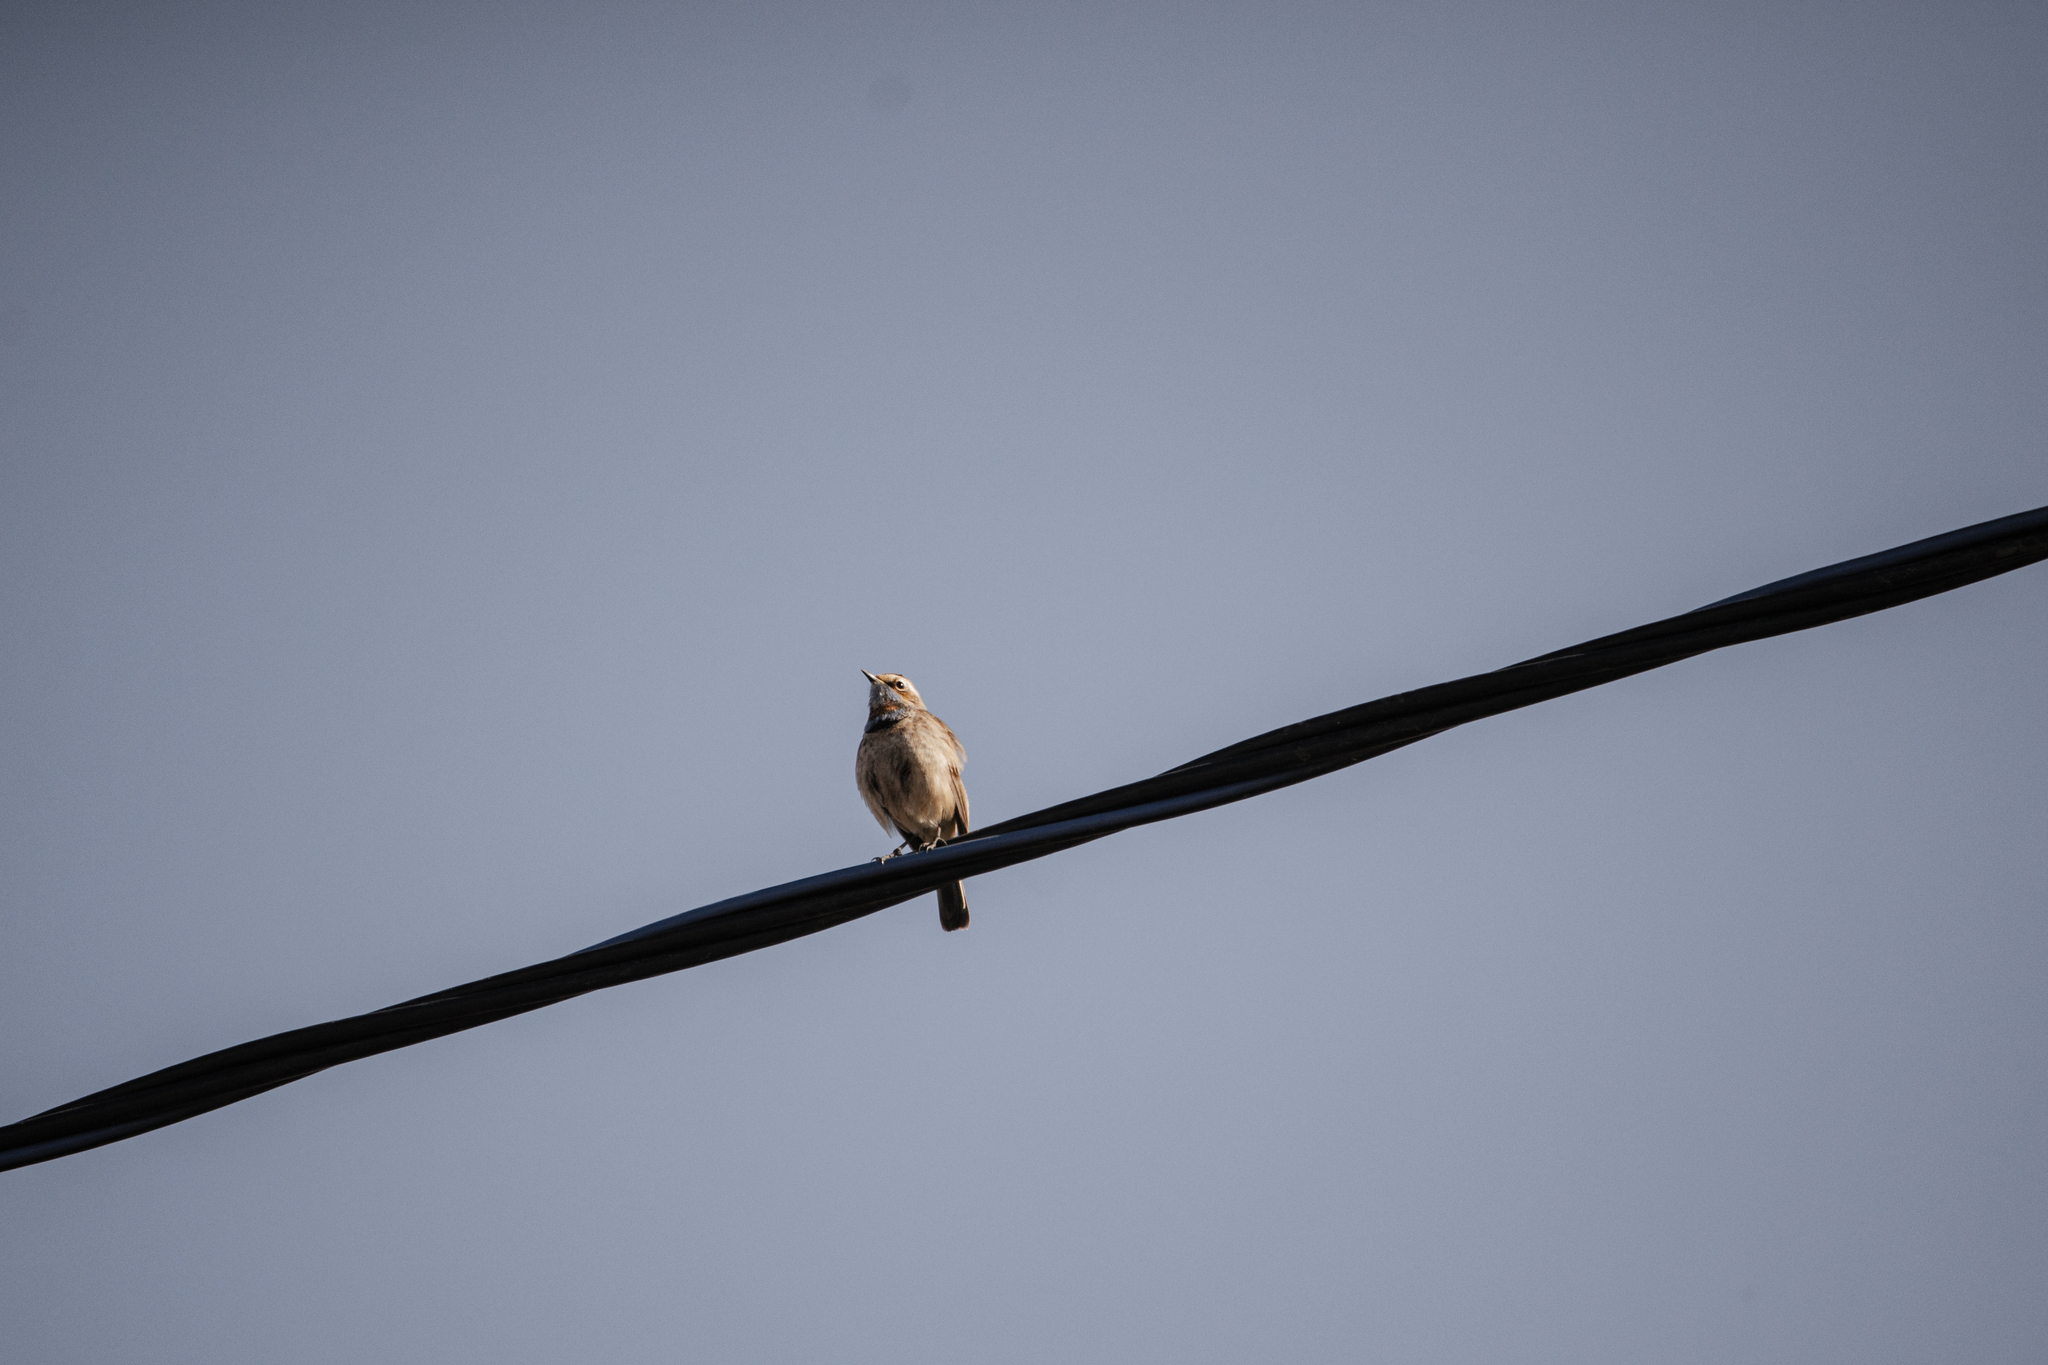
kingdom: Animalia
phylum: Chordata
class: Aves
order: Passeriformes
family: Muscicapidae
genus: Luscinia
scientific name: Luscinia svecica
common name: Bluethroat
